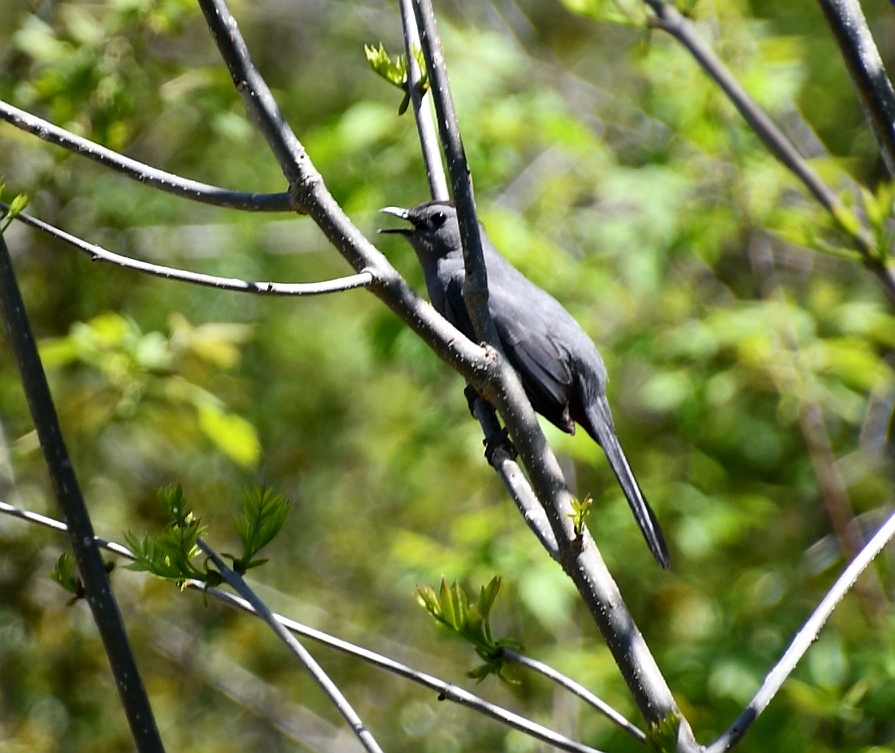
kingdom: Animalia
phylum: Chordata
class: Aves
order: Passeriformes
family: Mimidae
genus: Dumetella
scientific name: Dumetella carolinensis
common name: Gray catbird
